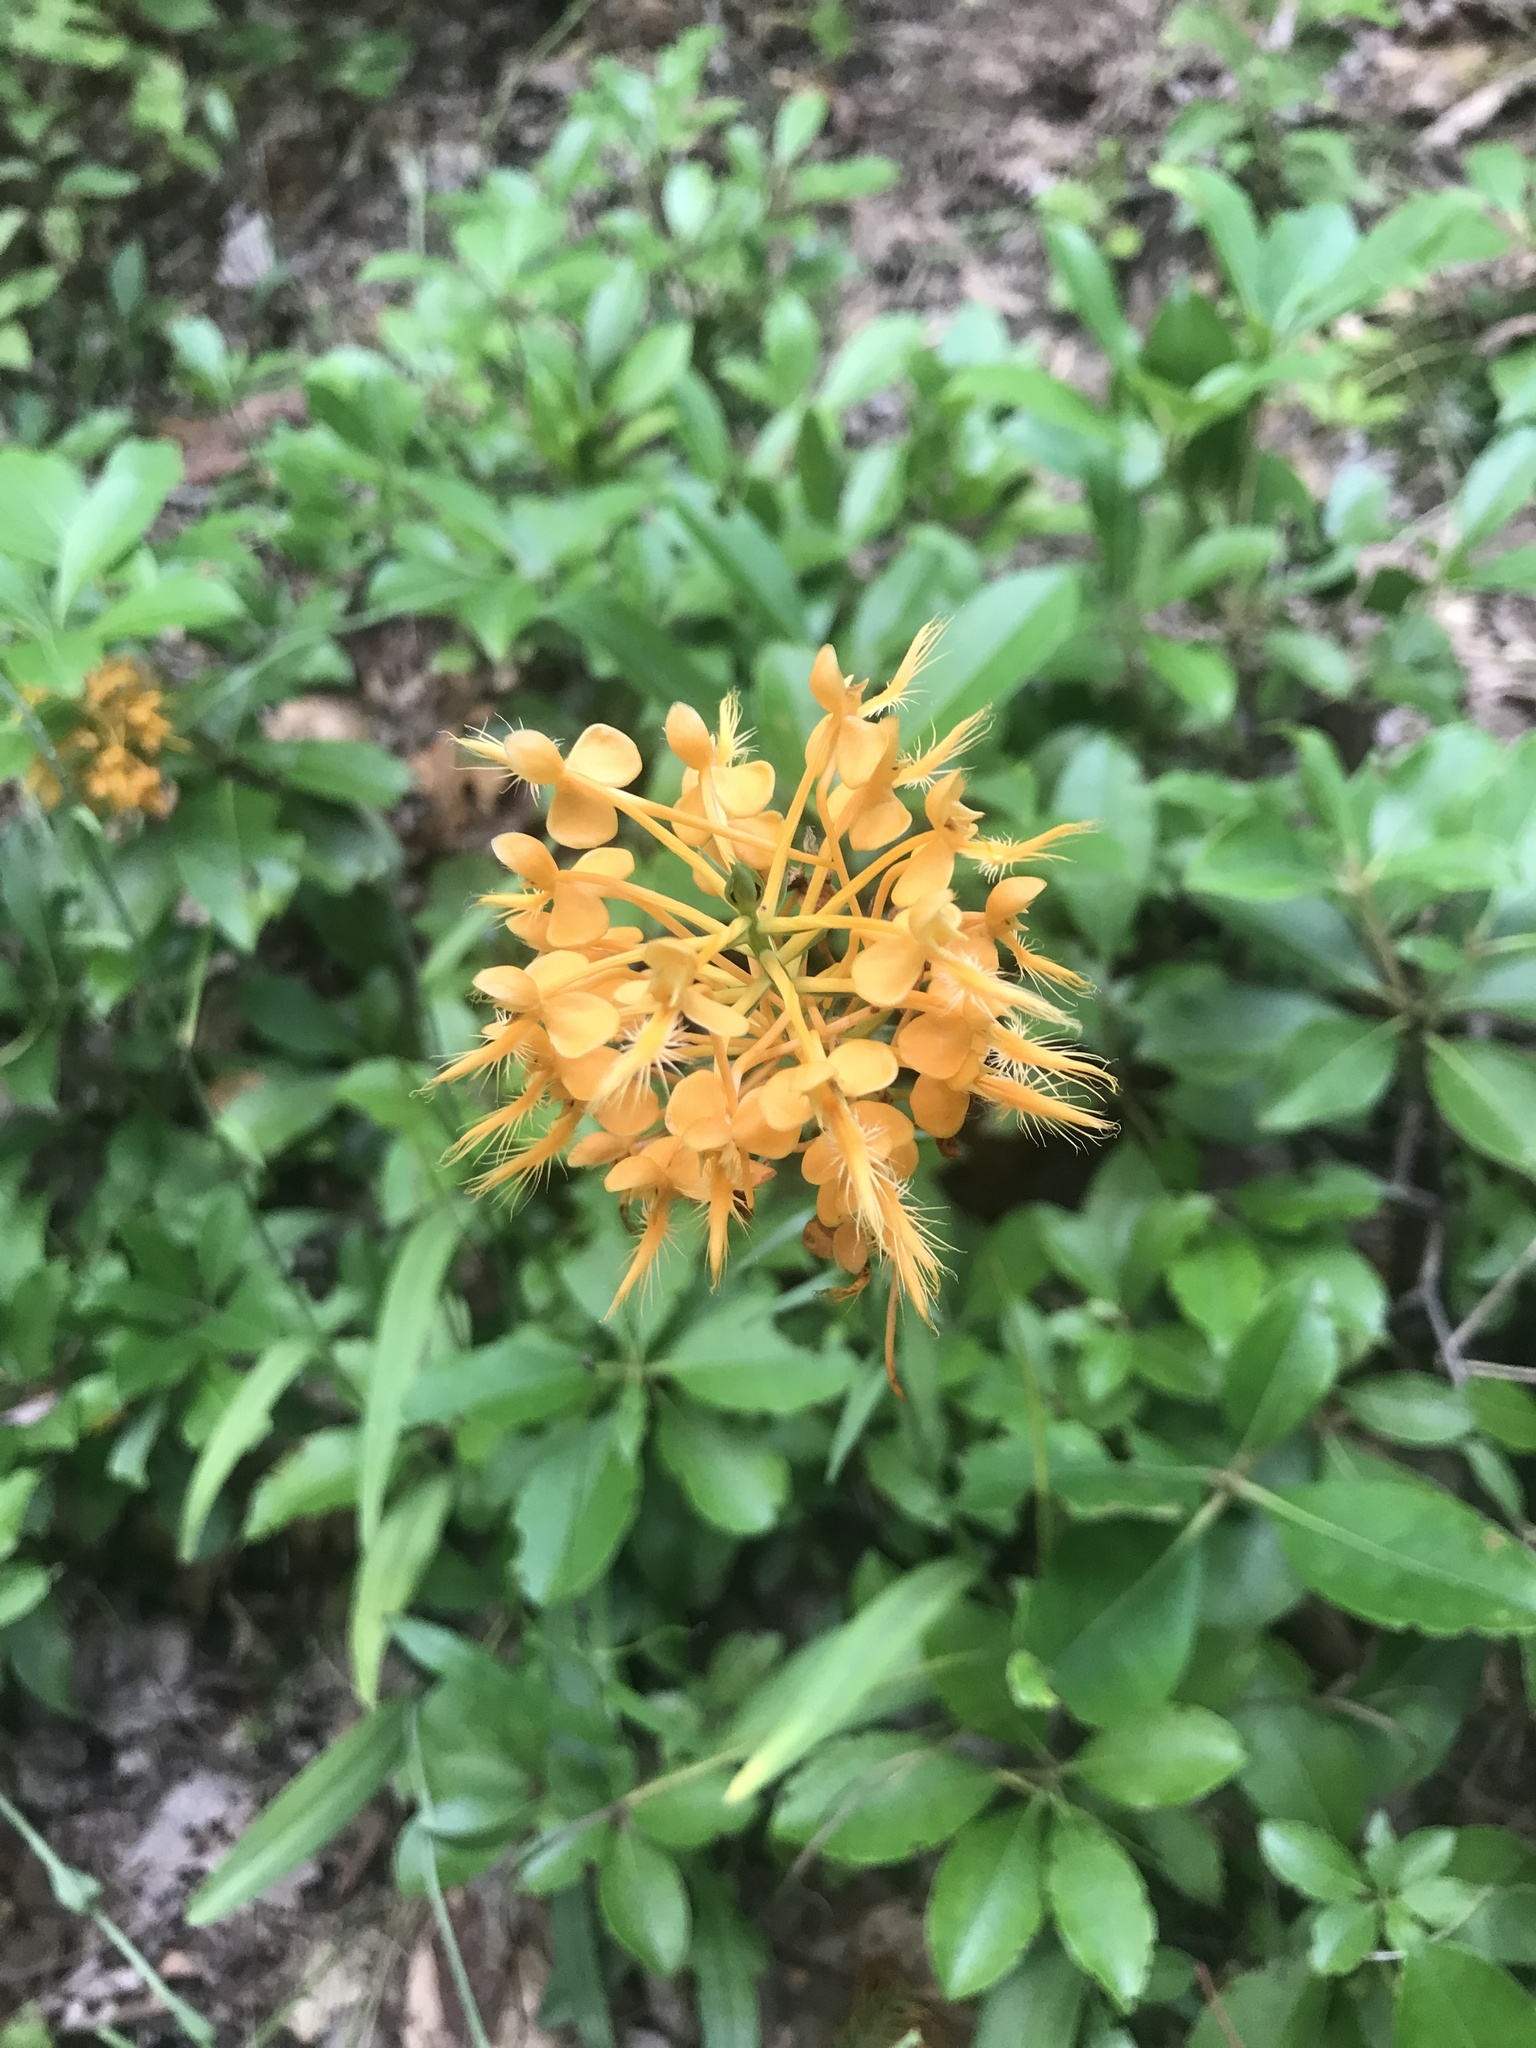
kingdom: Plantae
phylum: Tracheophyta
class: Liliopsida
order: Asparagales
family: Orchidaceae
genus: Platanthera
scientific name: Platanthera ciliaris
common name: Yellow fringed orchid
